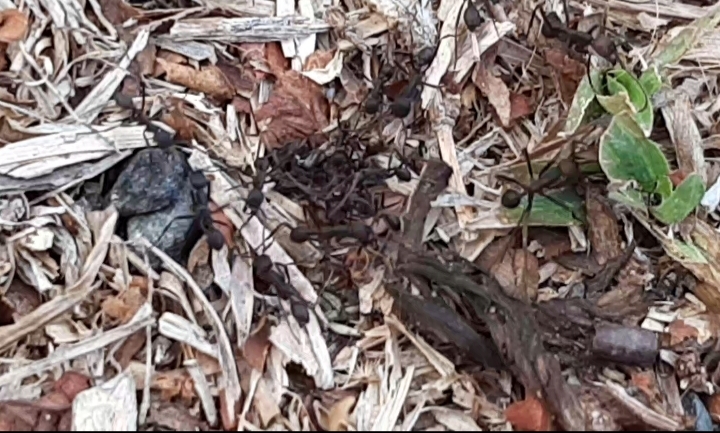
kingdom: Animalia
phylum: Arthropoda
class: Insecta
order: Hymenoptera
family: Formicidae
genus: Eciton
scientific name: Eciton burchellii
